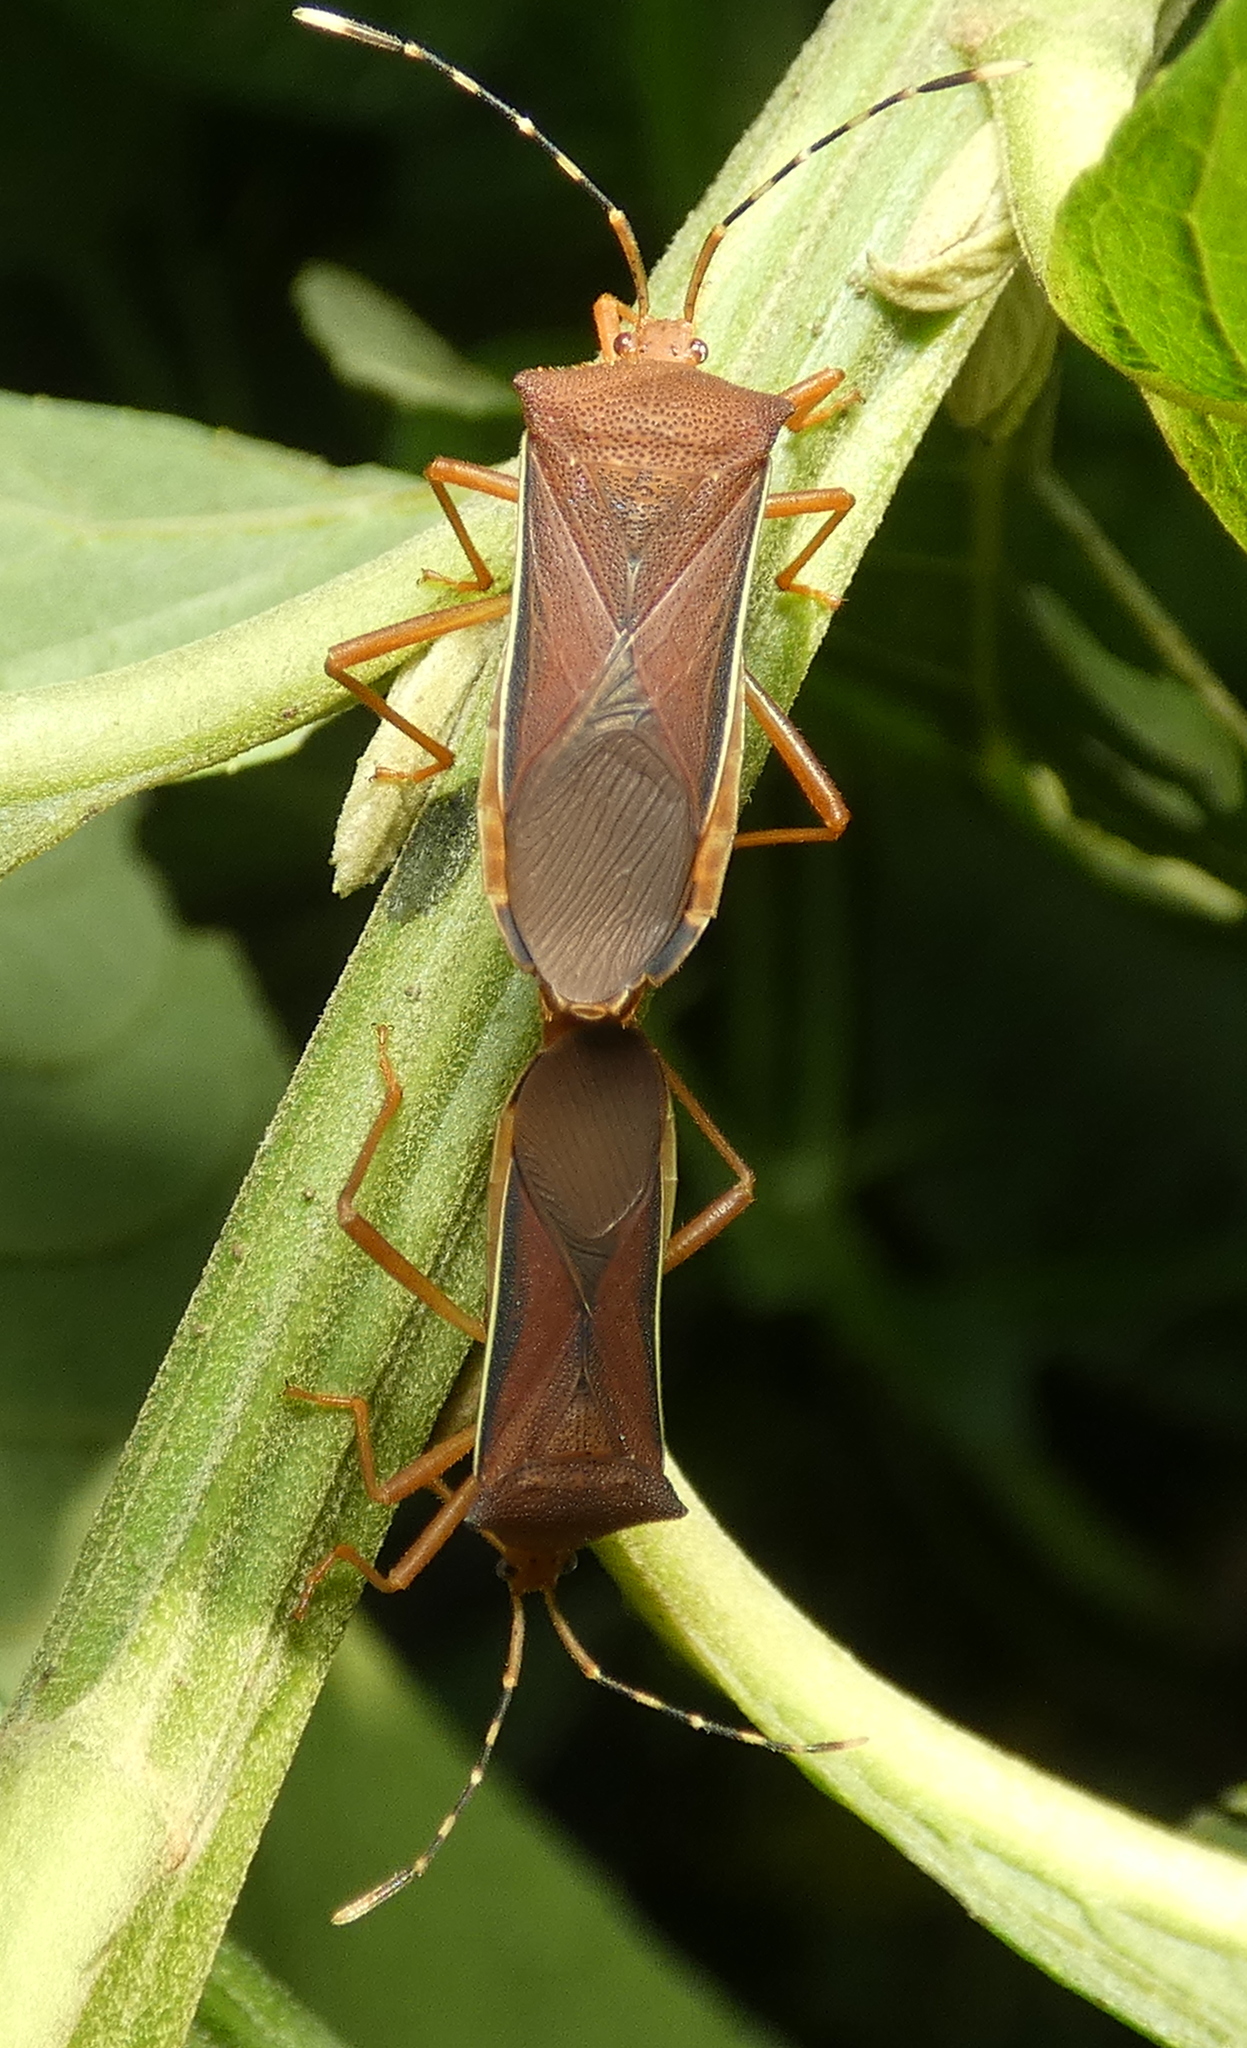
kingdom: Animalia
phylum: Arthropoda
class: Insecta
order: Hemiptera
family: Coreidae
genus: Anasa
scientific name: Anasa varicornis
